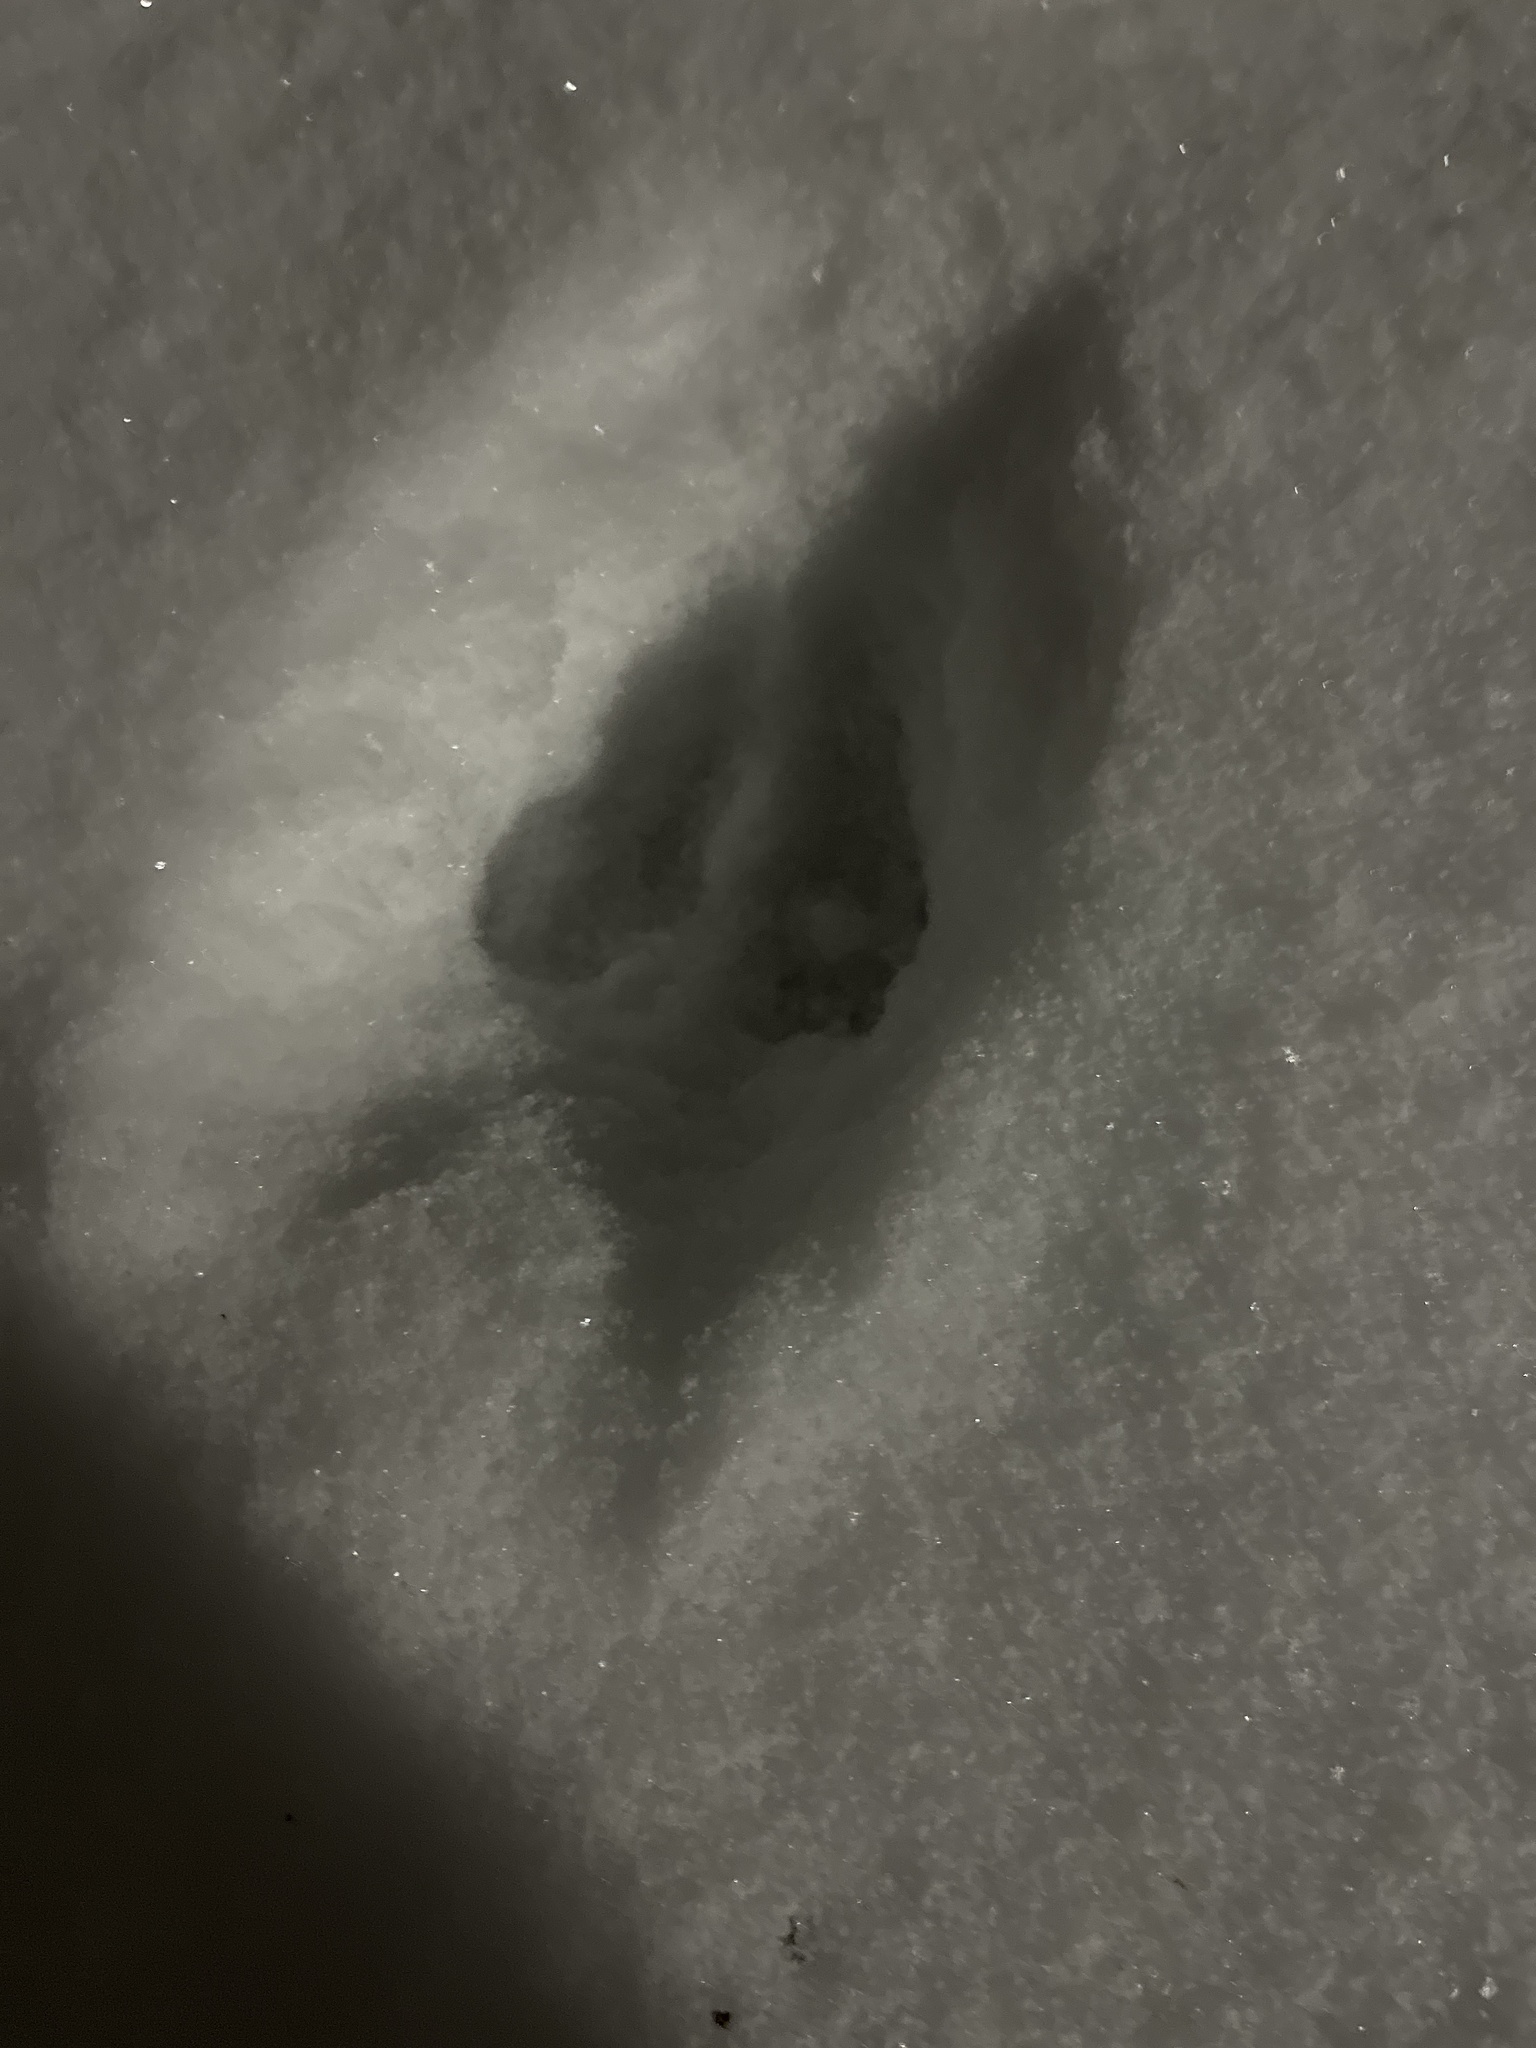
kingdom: Animalia
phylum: Chordata
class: Mammalia
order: Lagomorpha
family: Leporidae
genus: Sylvilagus
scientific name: Sylvilagus floridanus
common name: Eastern cottontail
